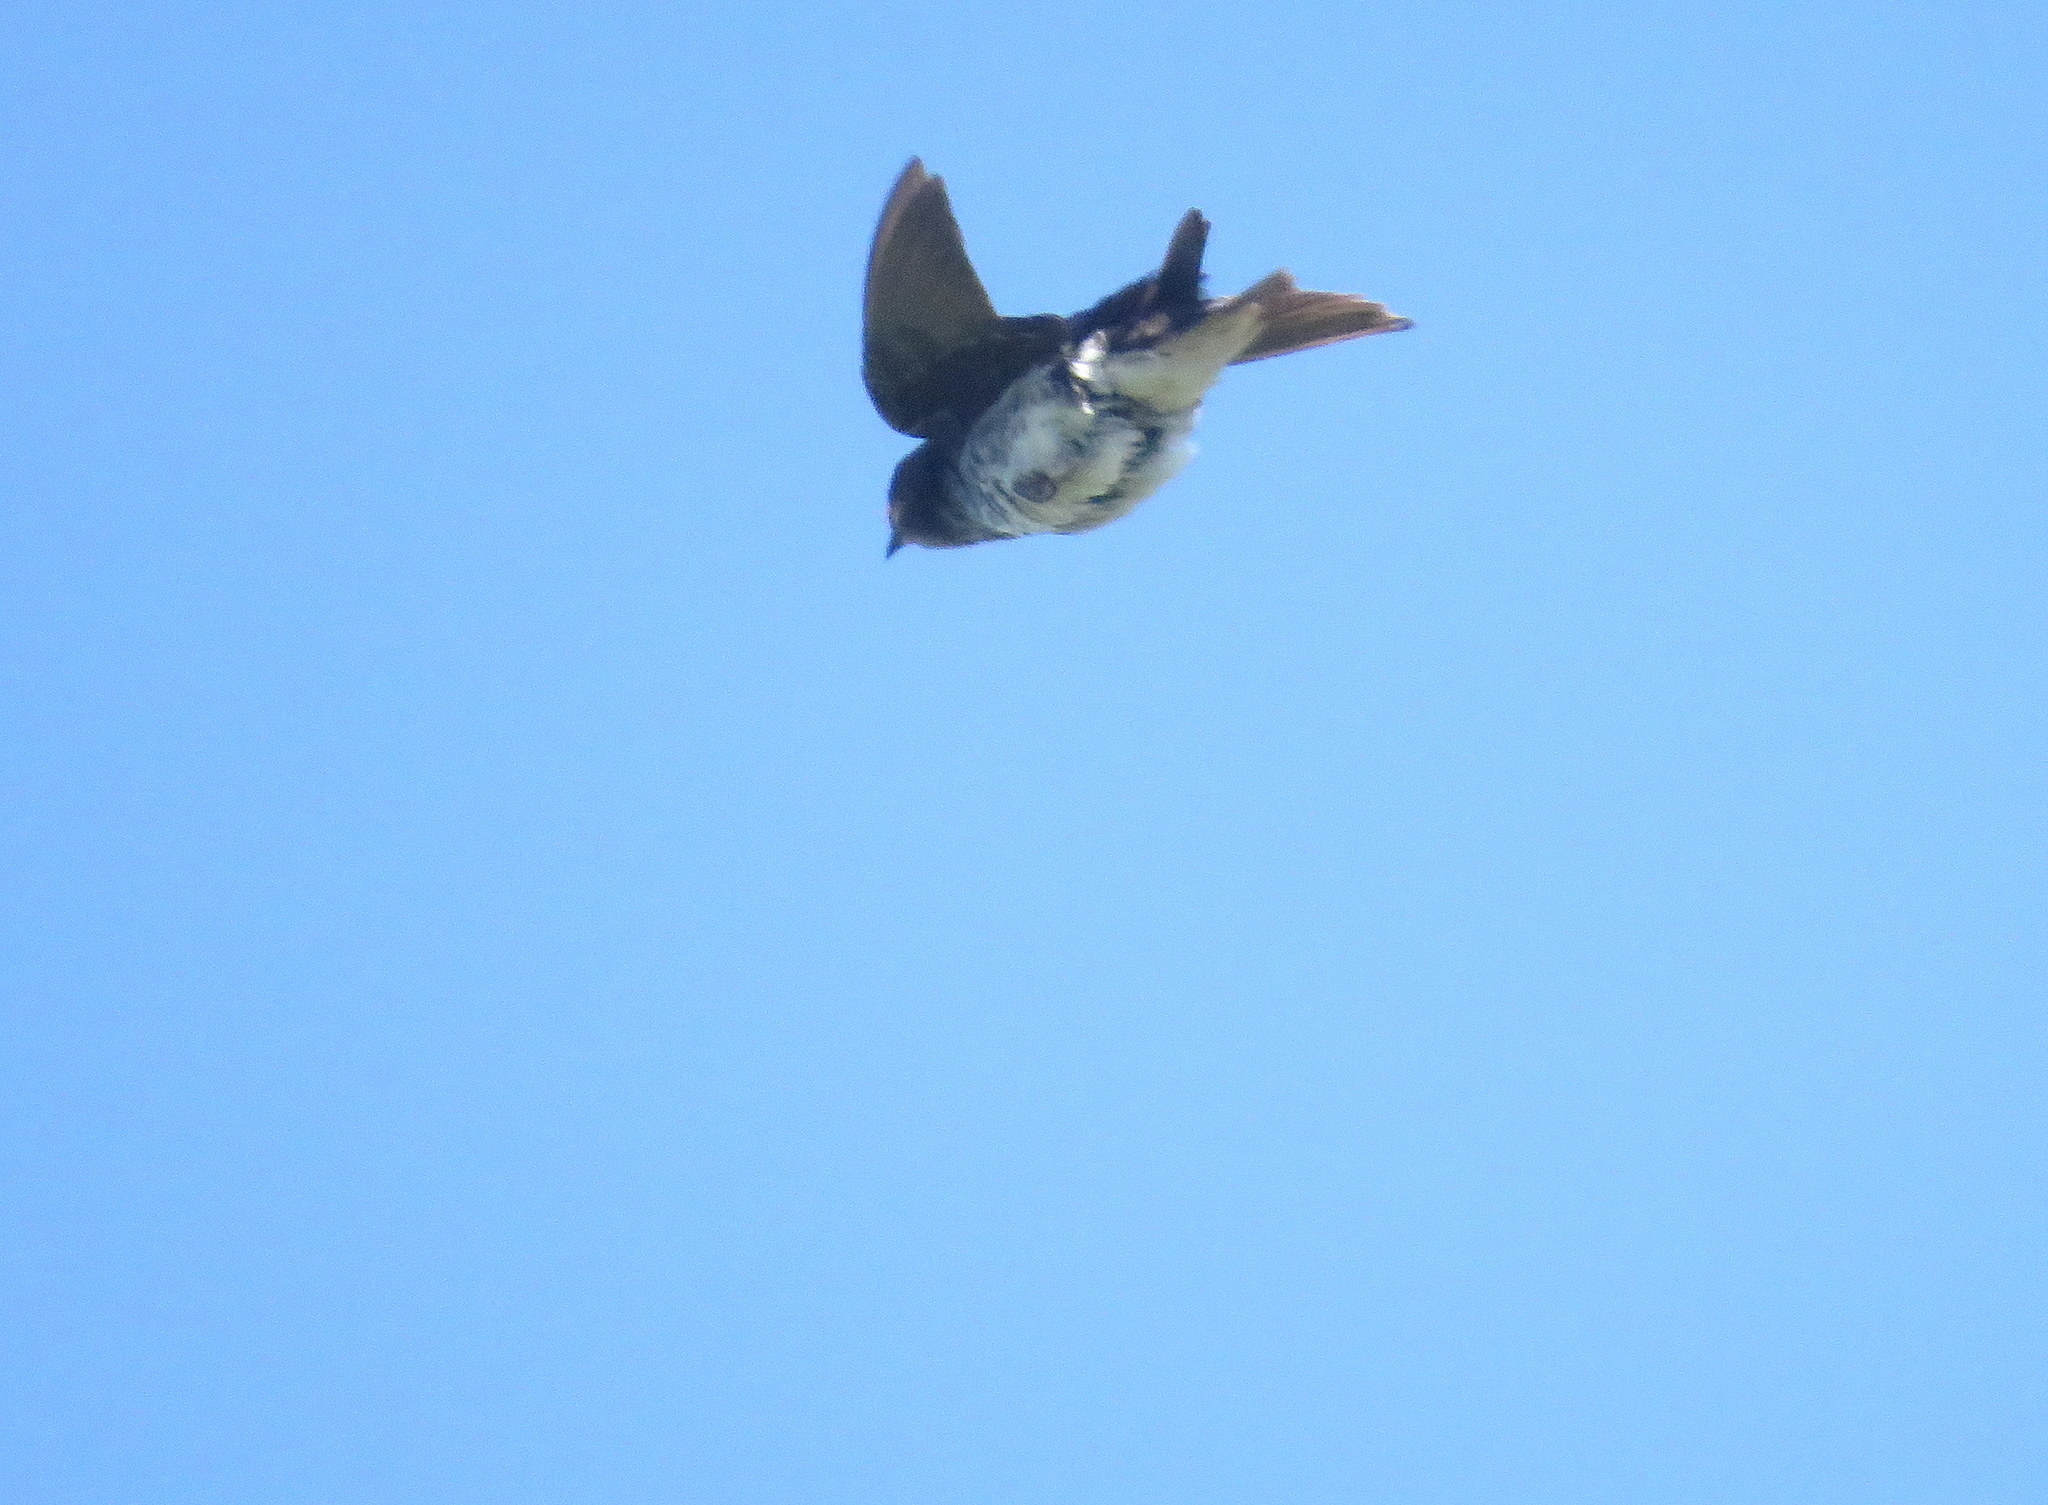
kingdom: Animalia
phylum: Chordata
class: Aves
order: Passeriformes
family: Hirundinidae
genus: Progne
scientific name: Progne chalybea
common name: Grey-breasted martin
